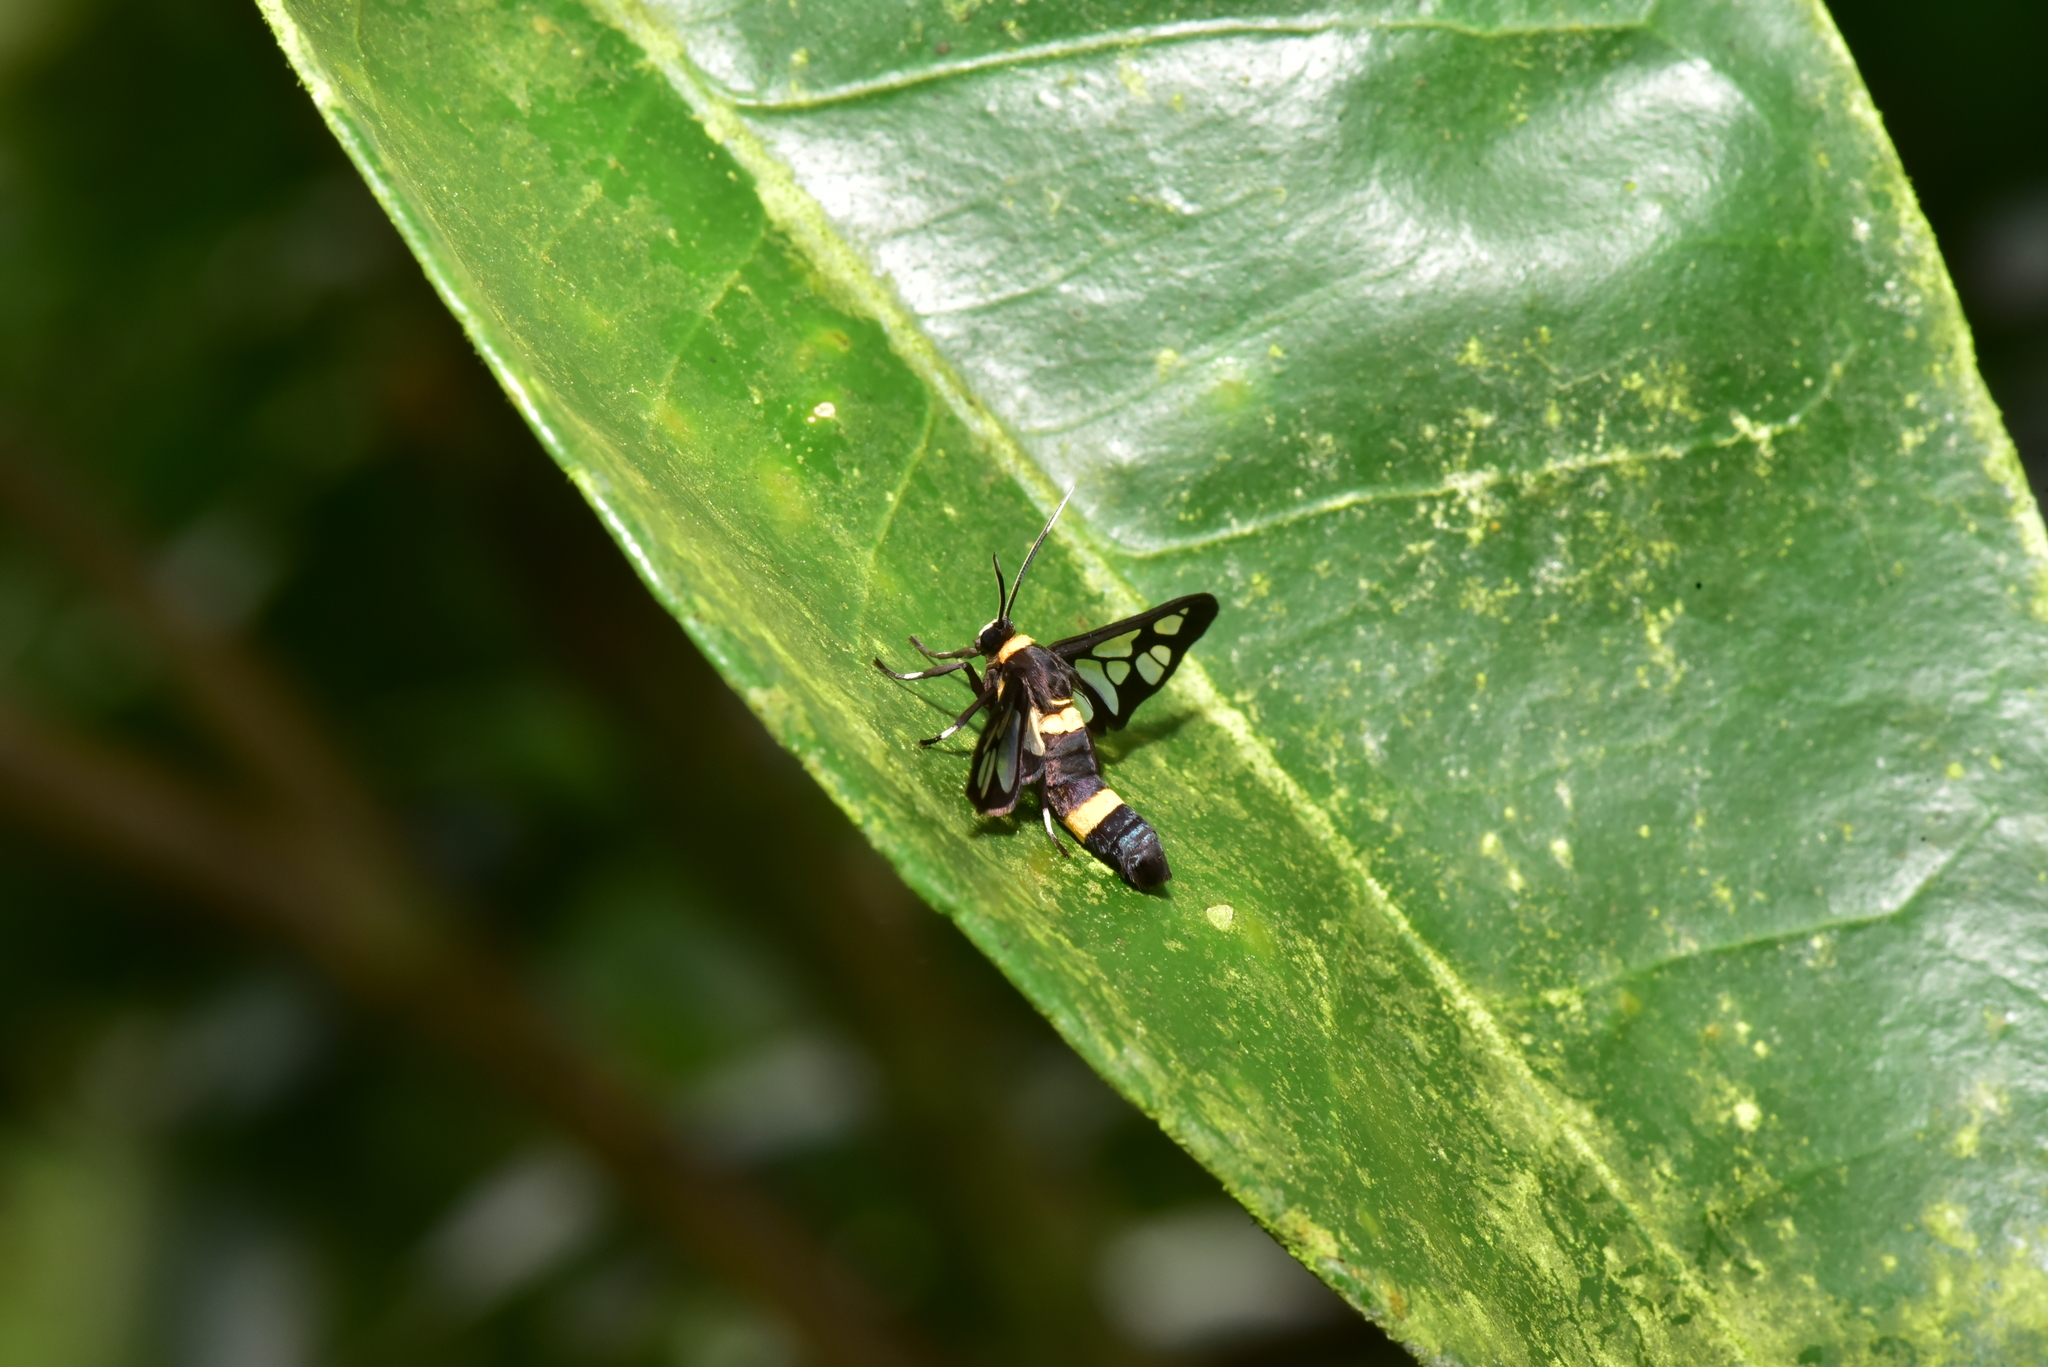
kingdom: Animalia
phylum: Arthropoda
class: Insecta
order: Lepidoptera
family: Erebidae
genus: Syntomoides
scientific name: Syntomoides imaon
